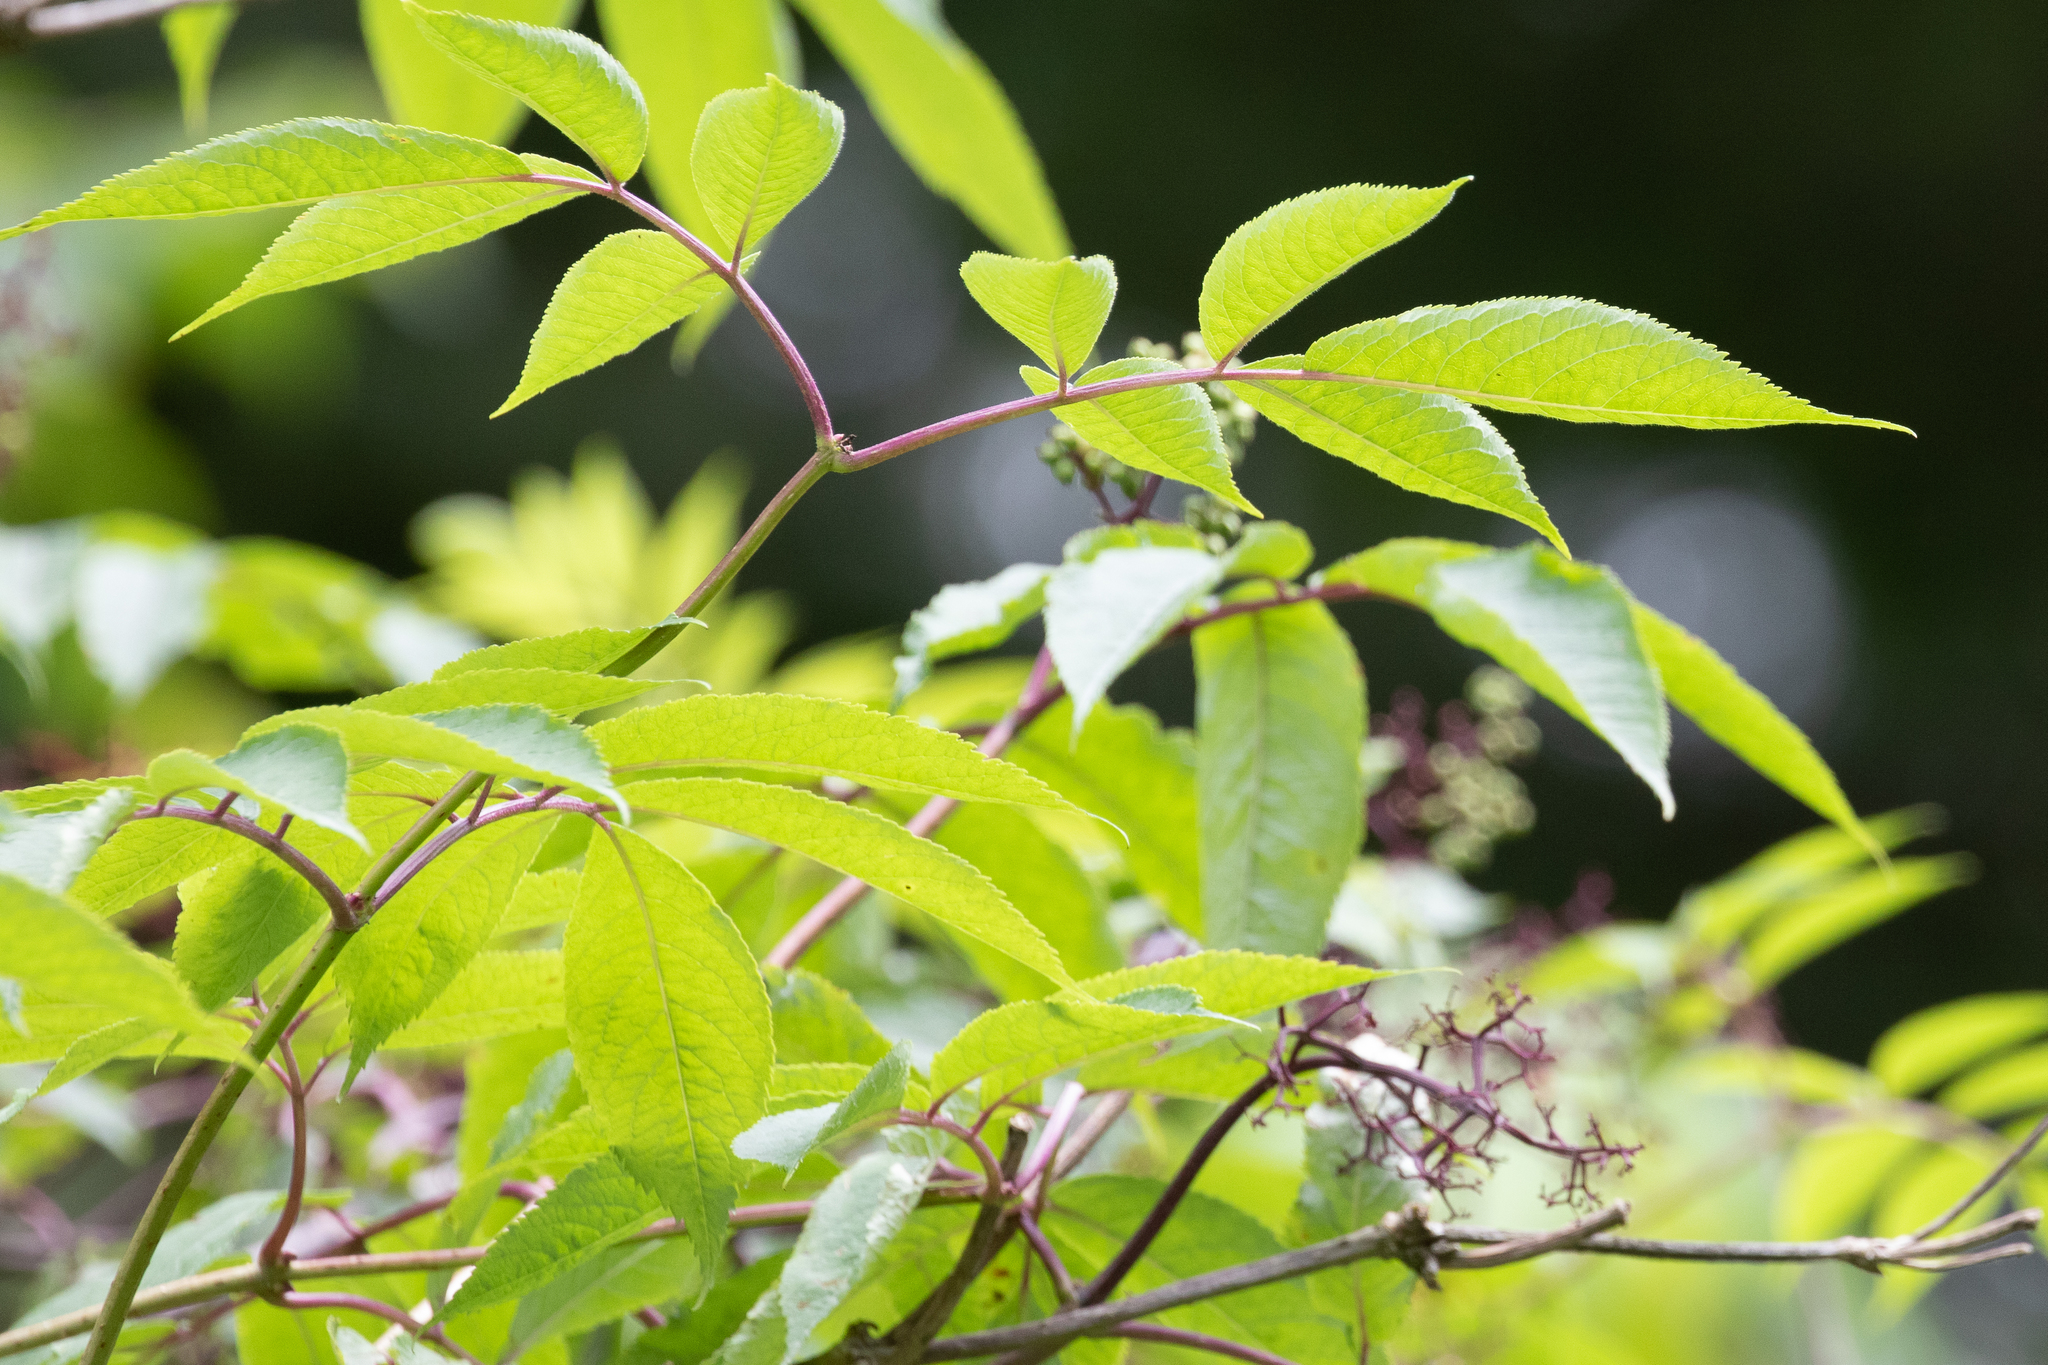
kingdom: Plantae
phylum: Tracheophyta
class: Magnoliopsida
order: Dipsacales
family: Viburnaceae
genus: Sambucus
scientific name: Sambucus racemosa
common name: Red-berried elder
